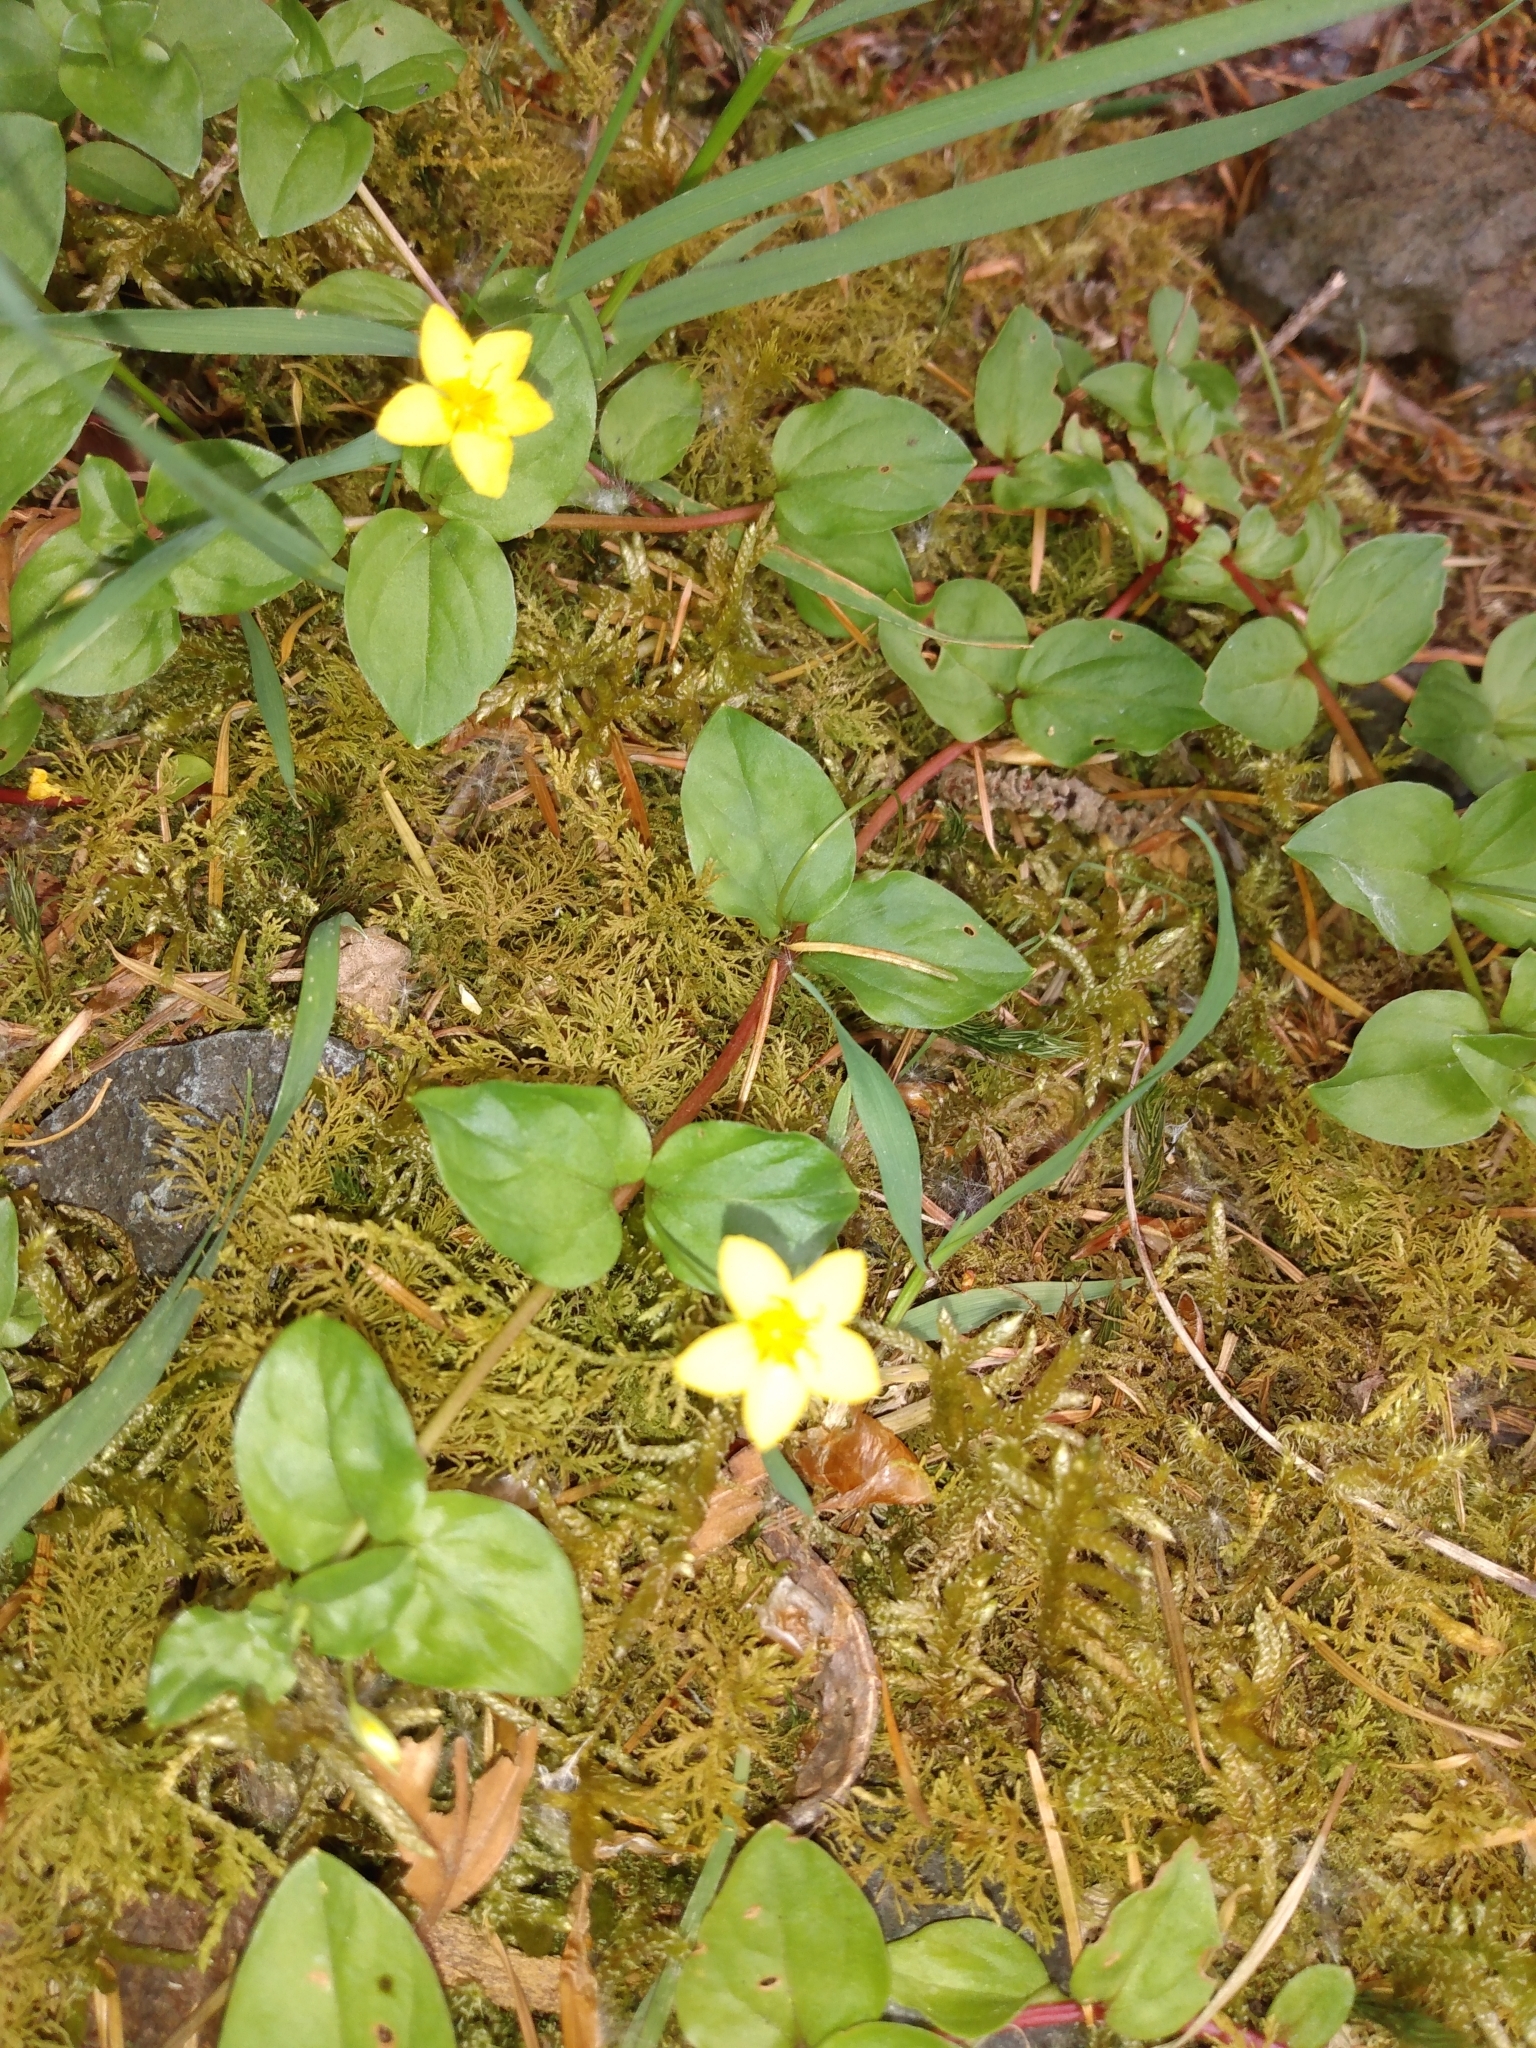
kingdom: Plantae
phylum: Tracheophyta
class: Magnoliopsida
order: Ericales
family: Primulaceae
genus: Lysimachia
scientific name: Lysimachia nemorum
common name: Yellow pimpernel
